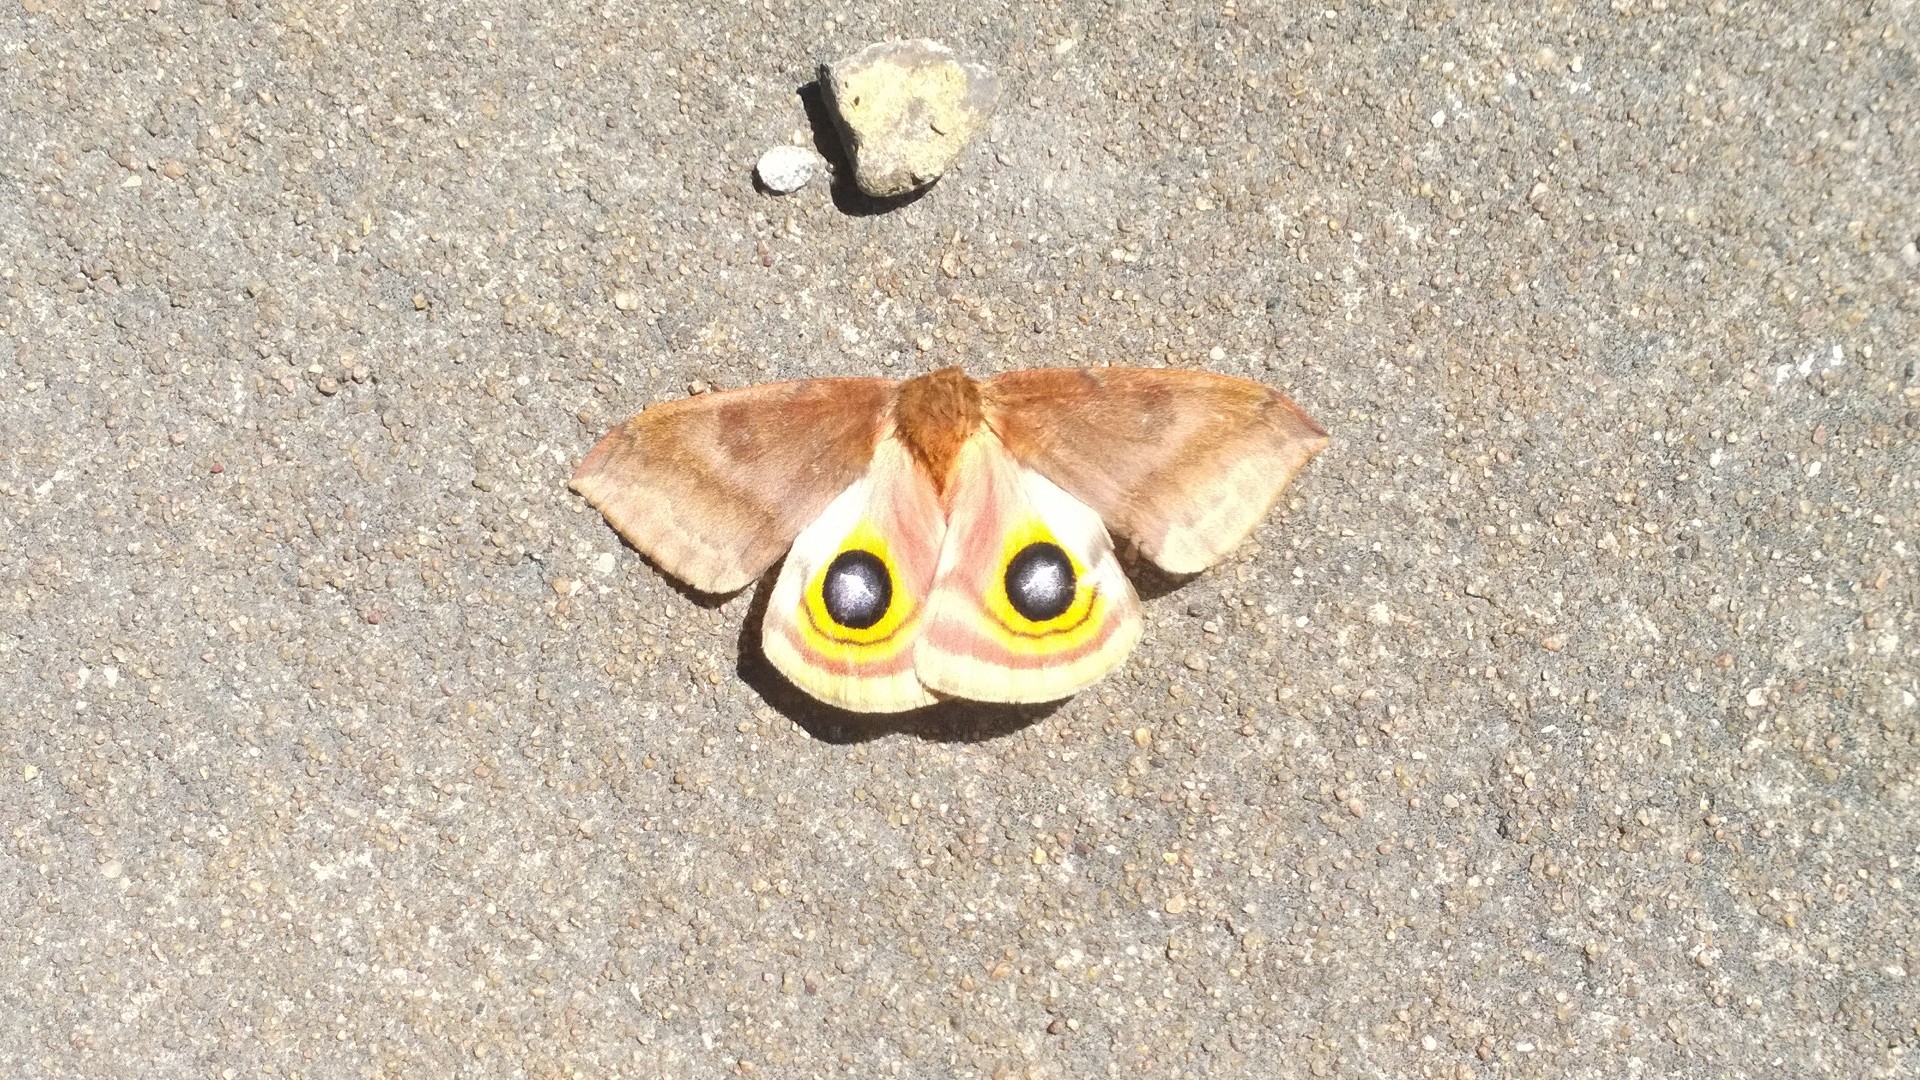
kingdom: Animalia
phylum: Arthropoda
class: Insecta
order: Lepidoptera
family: Saturniidae
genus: Automeris
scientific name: Automeris io
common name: Io moth
